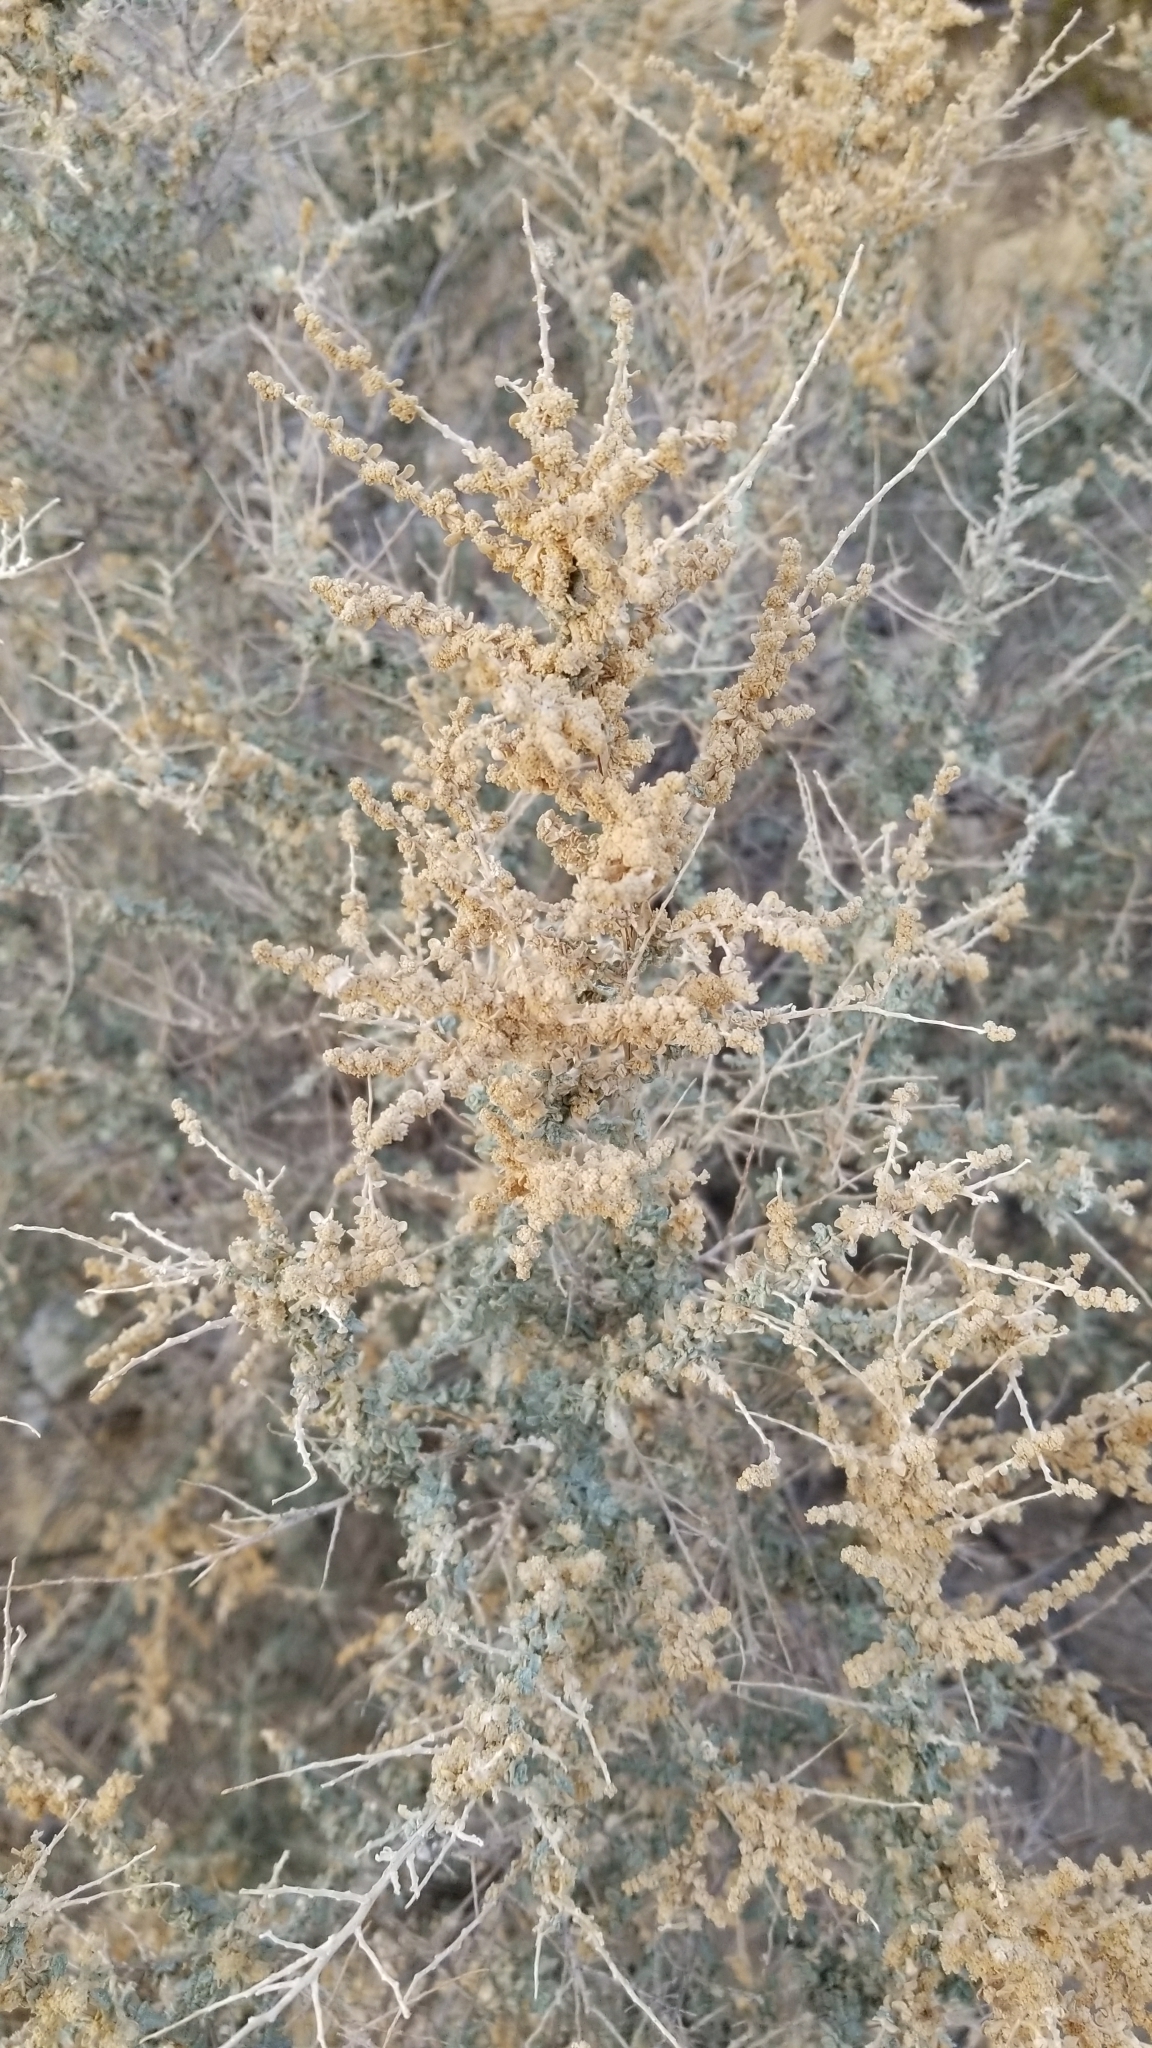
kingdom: Plantae
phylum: Tracheophyta
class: Magnoliopsida
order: Caryophyllales
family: Amaranthaceae
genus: Atriplex
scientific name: Atriplex polycarpa
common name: Desert saltbush
